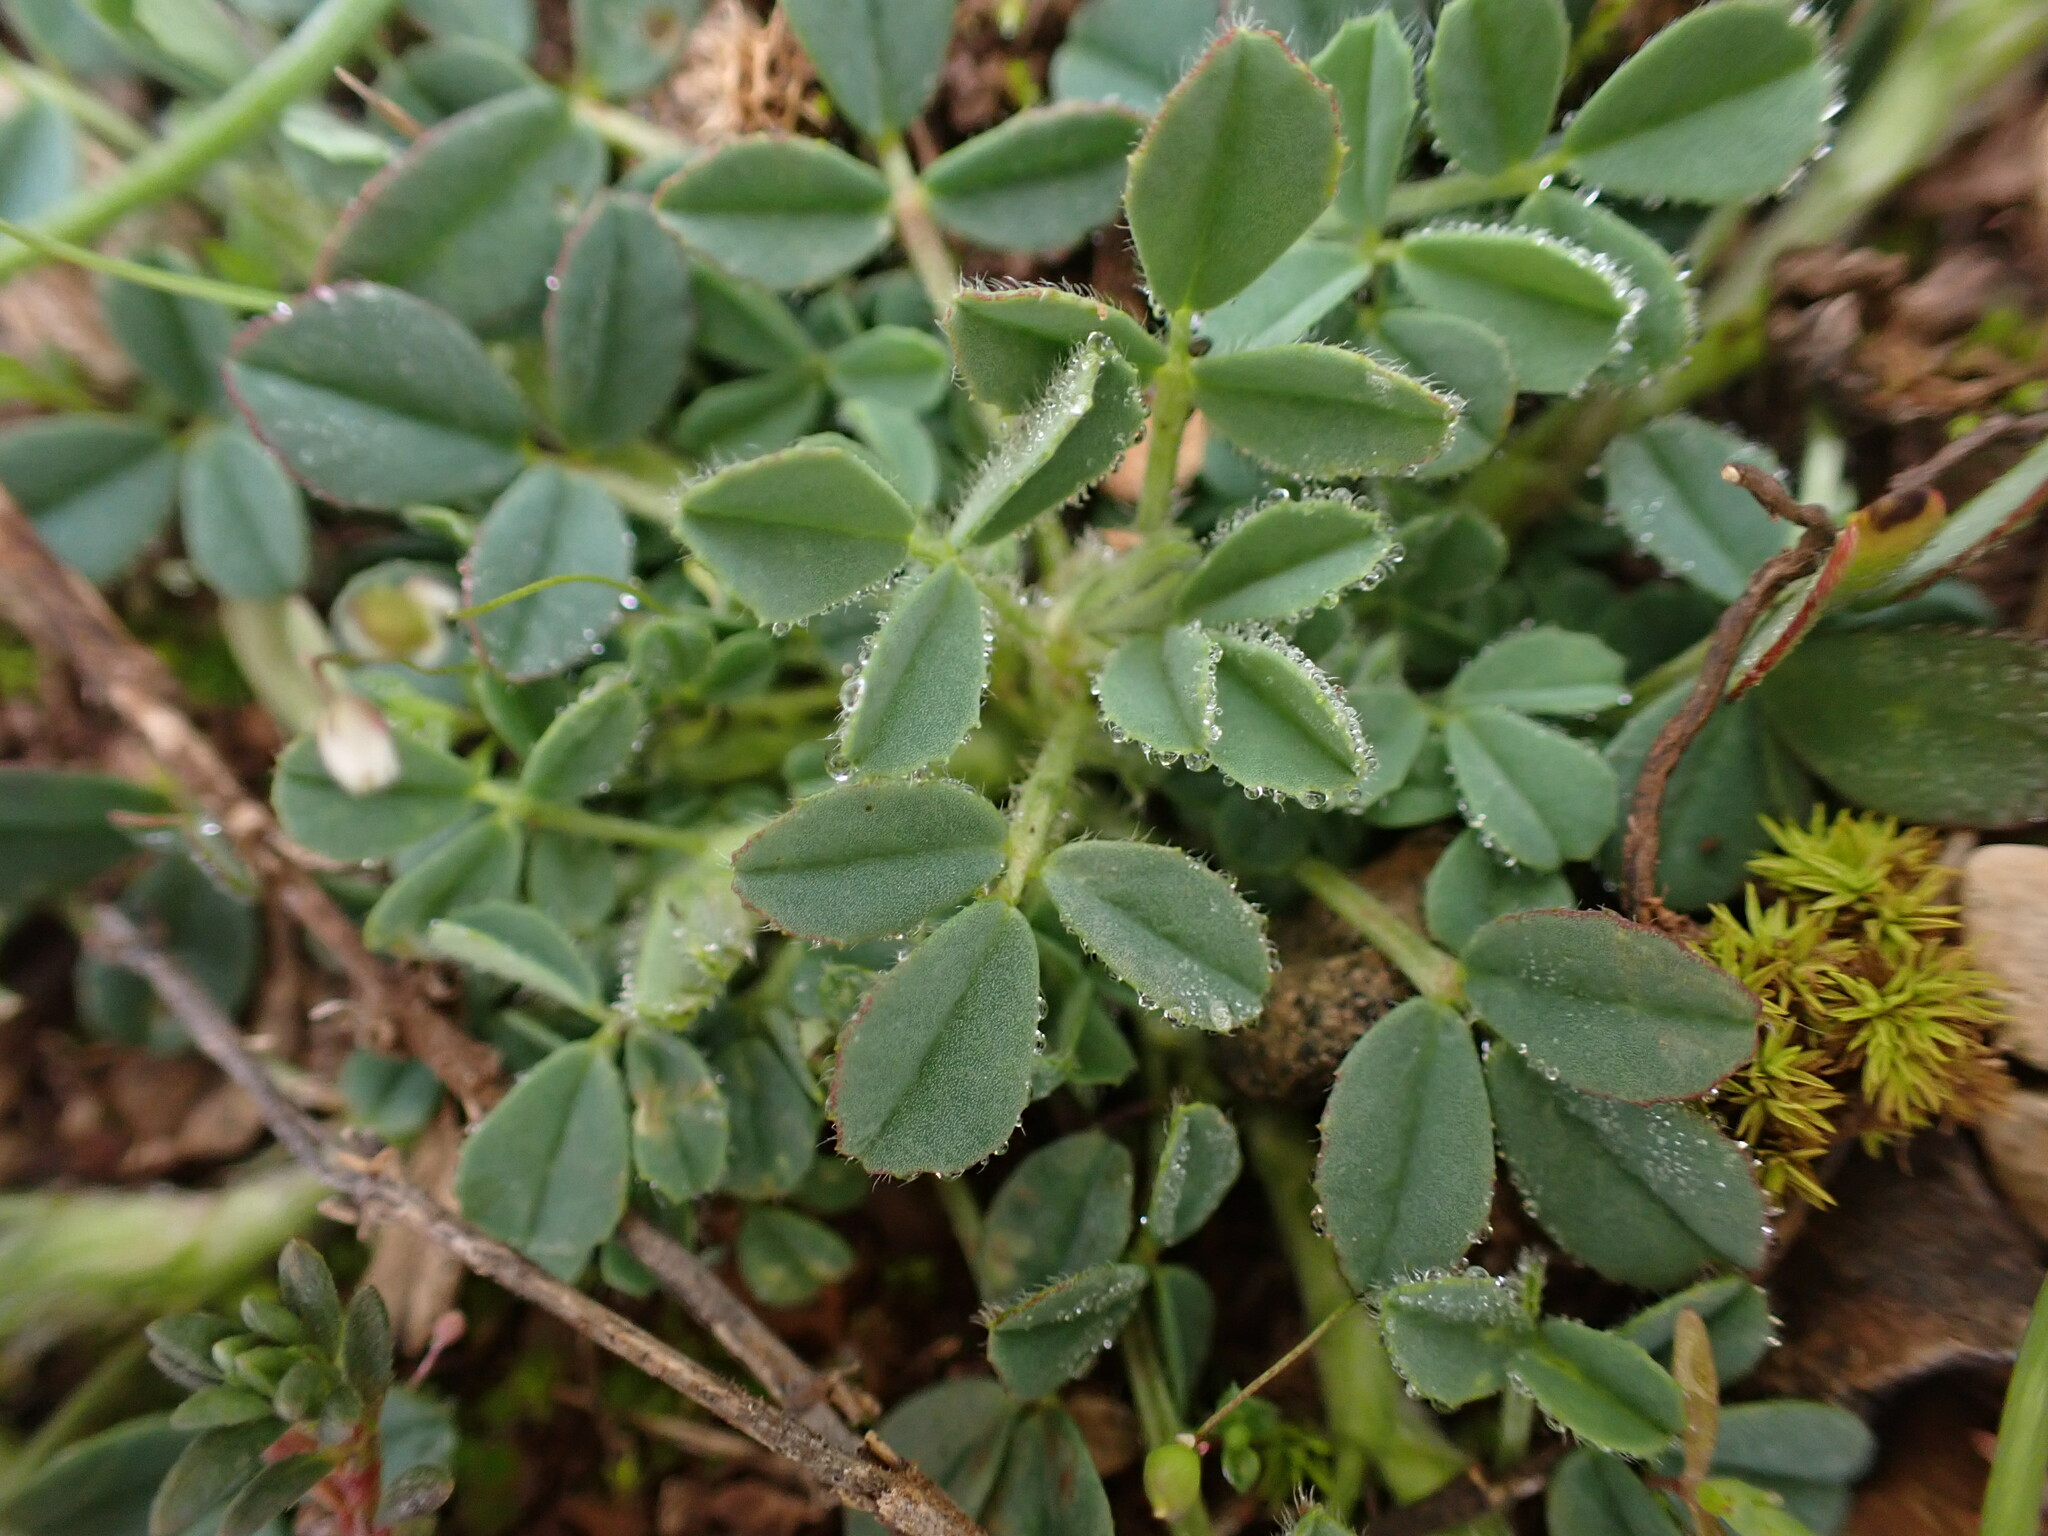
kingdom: Plantae
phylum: Tracheophyta
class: Magnoliopsida
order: Fabales
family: Fabaceae
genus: Trigonella
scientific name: Trigonella gladiata
